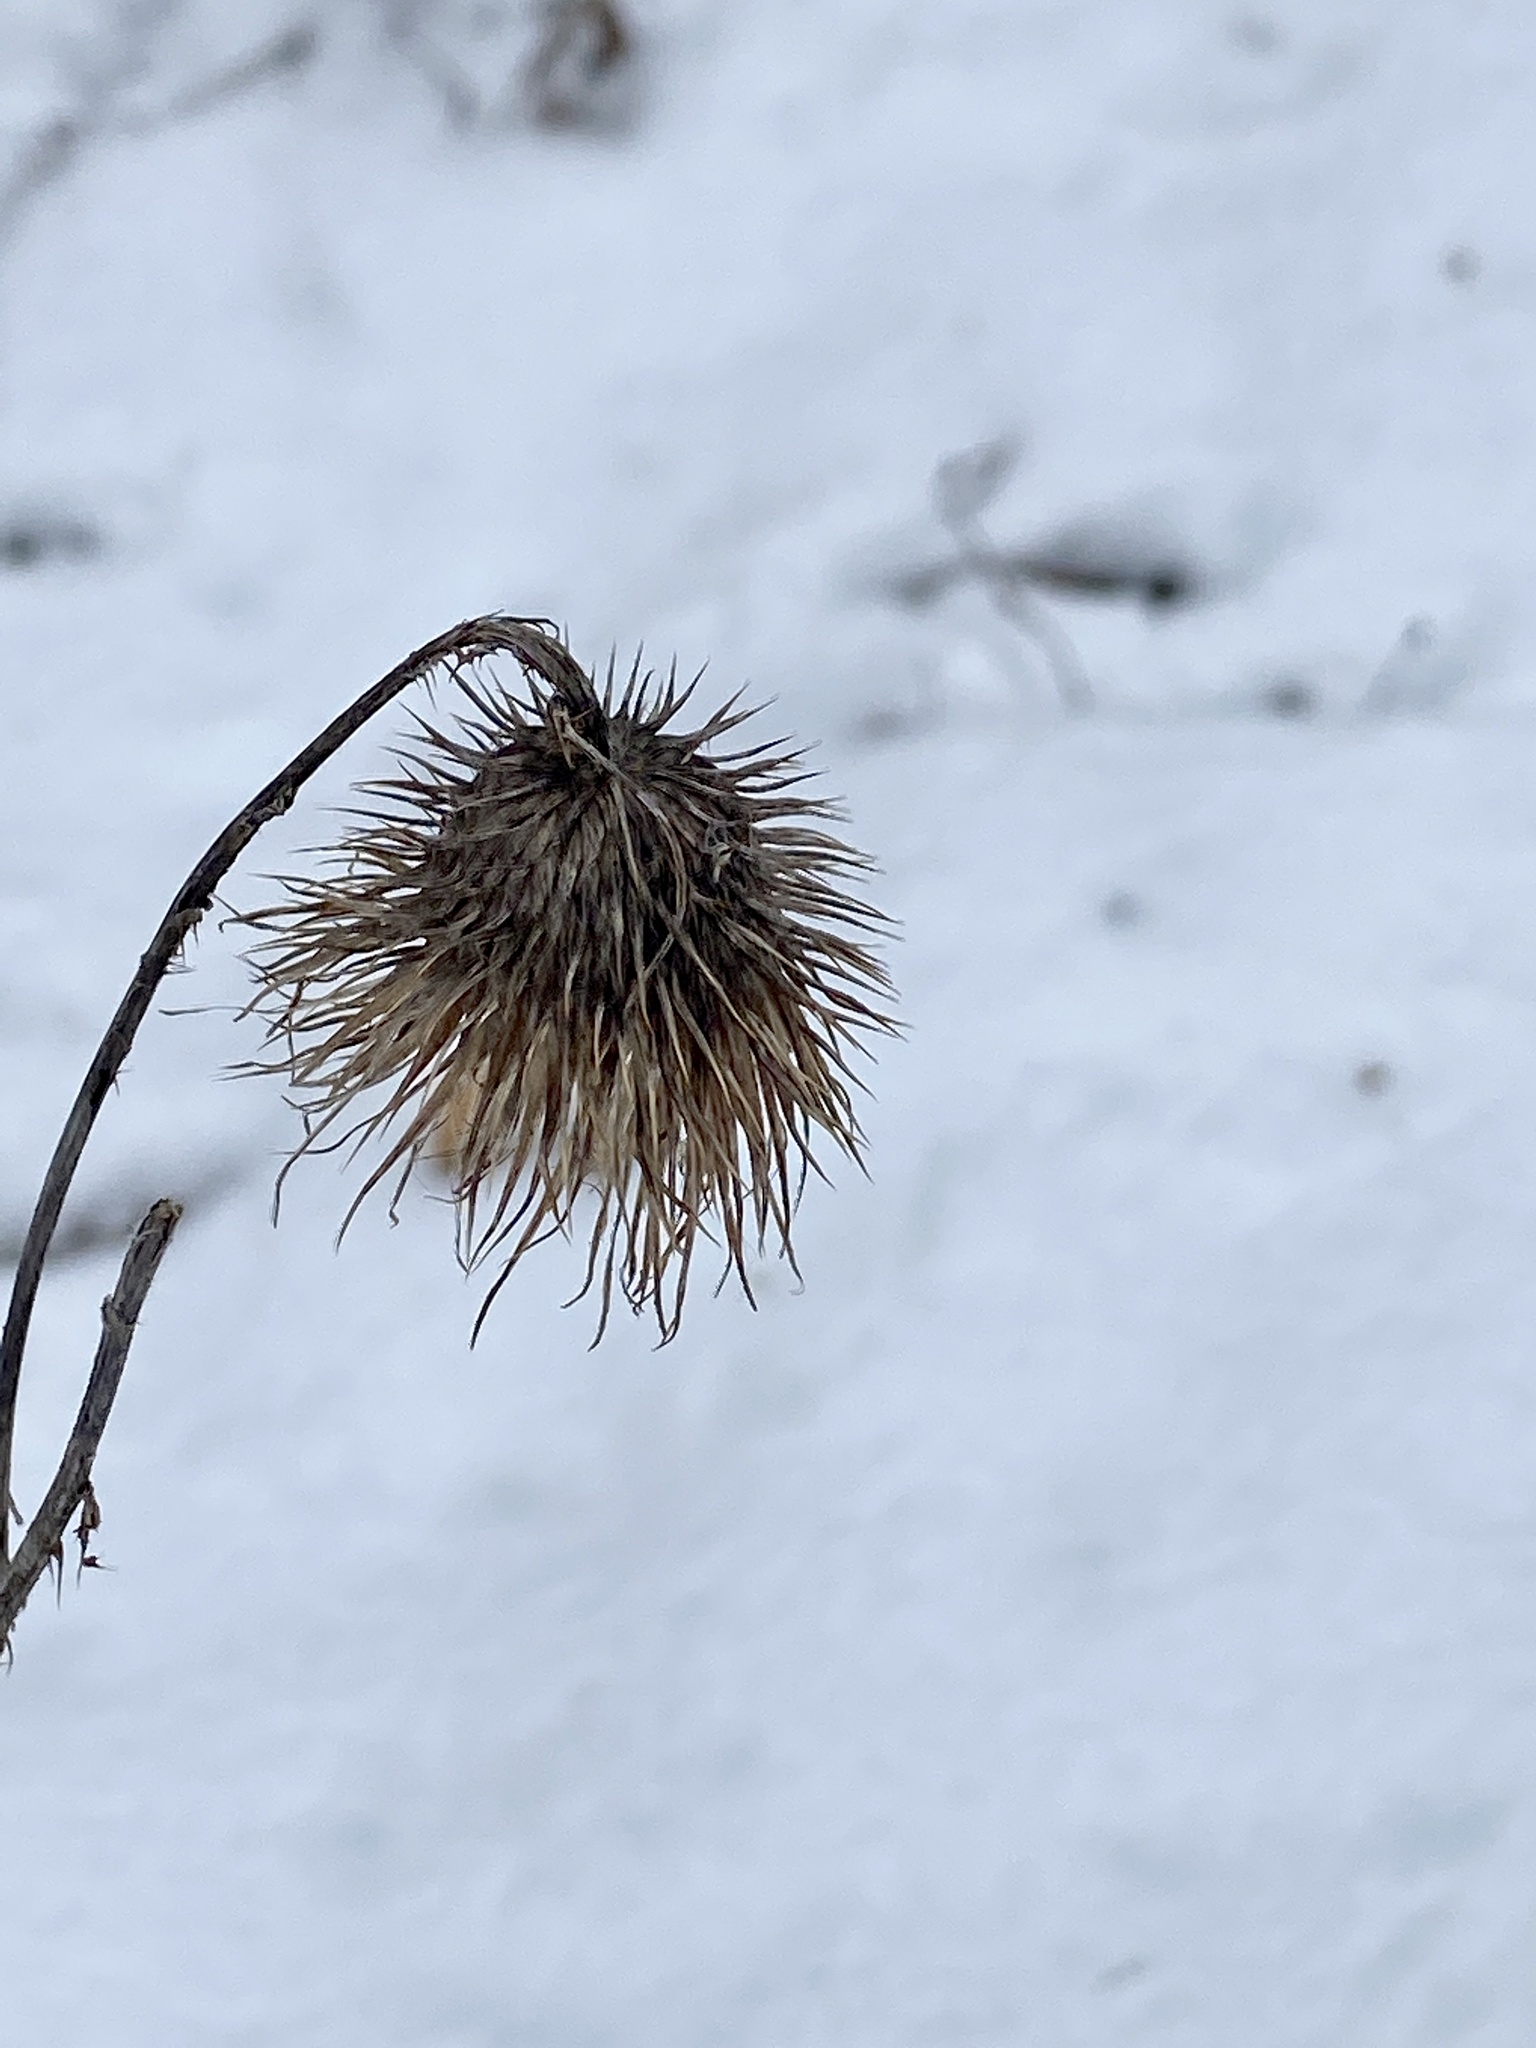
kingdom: Plantae
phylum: Tracheophyta
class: Magnoliopsida
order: Asterales
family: Asteraceae
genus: Cirsium
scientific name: Cirsium vulgare
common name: Bull thistle
